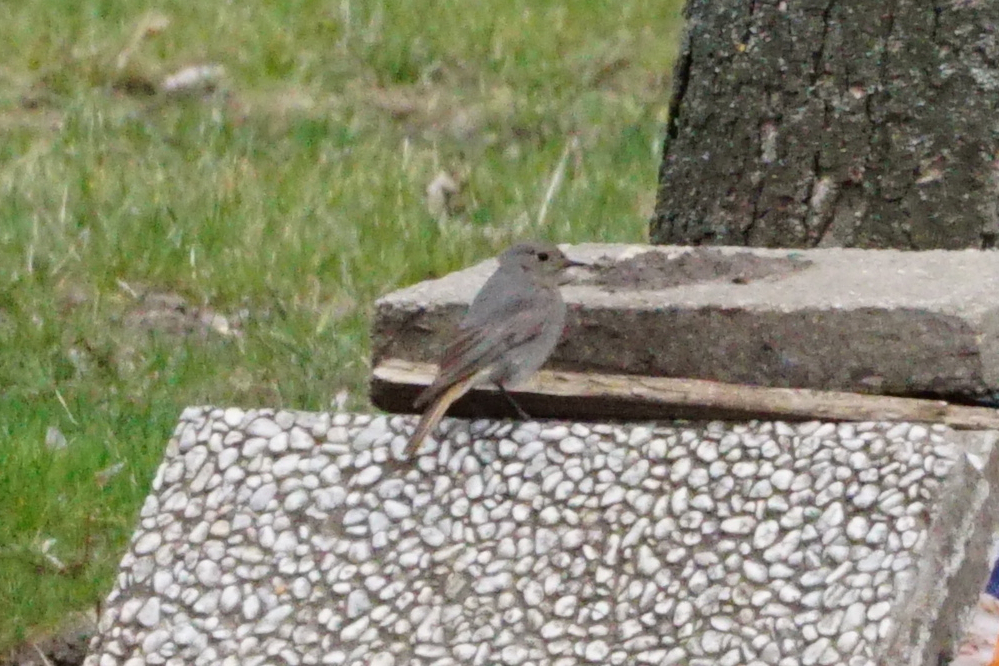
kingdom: Animalia
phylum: Chordata
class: Aves
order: Passeriformes
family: Muscicapidae
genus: Phoenicurus
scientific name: Phoenicurus ochruros
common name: Black redstart
